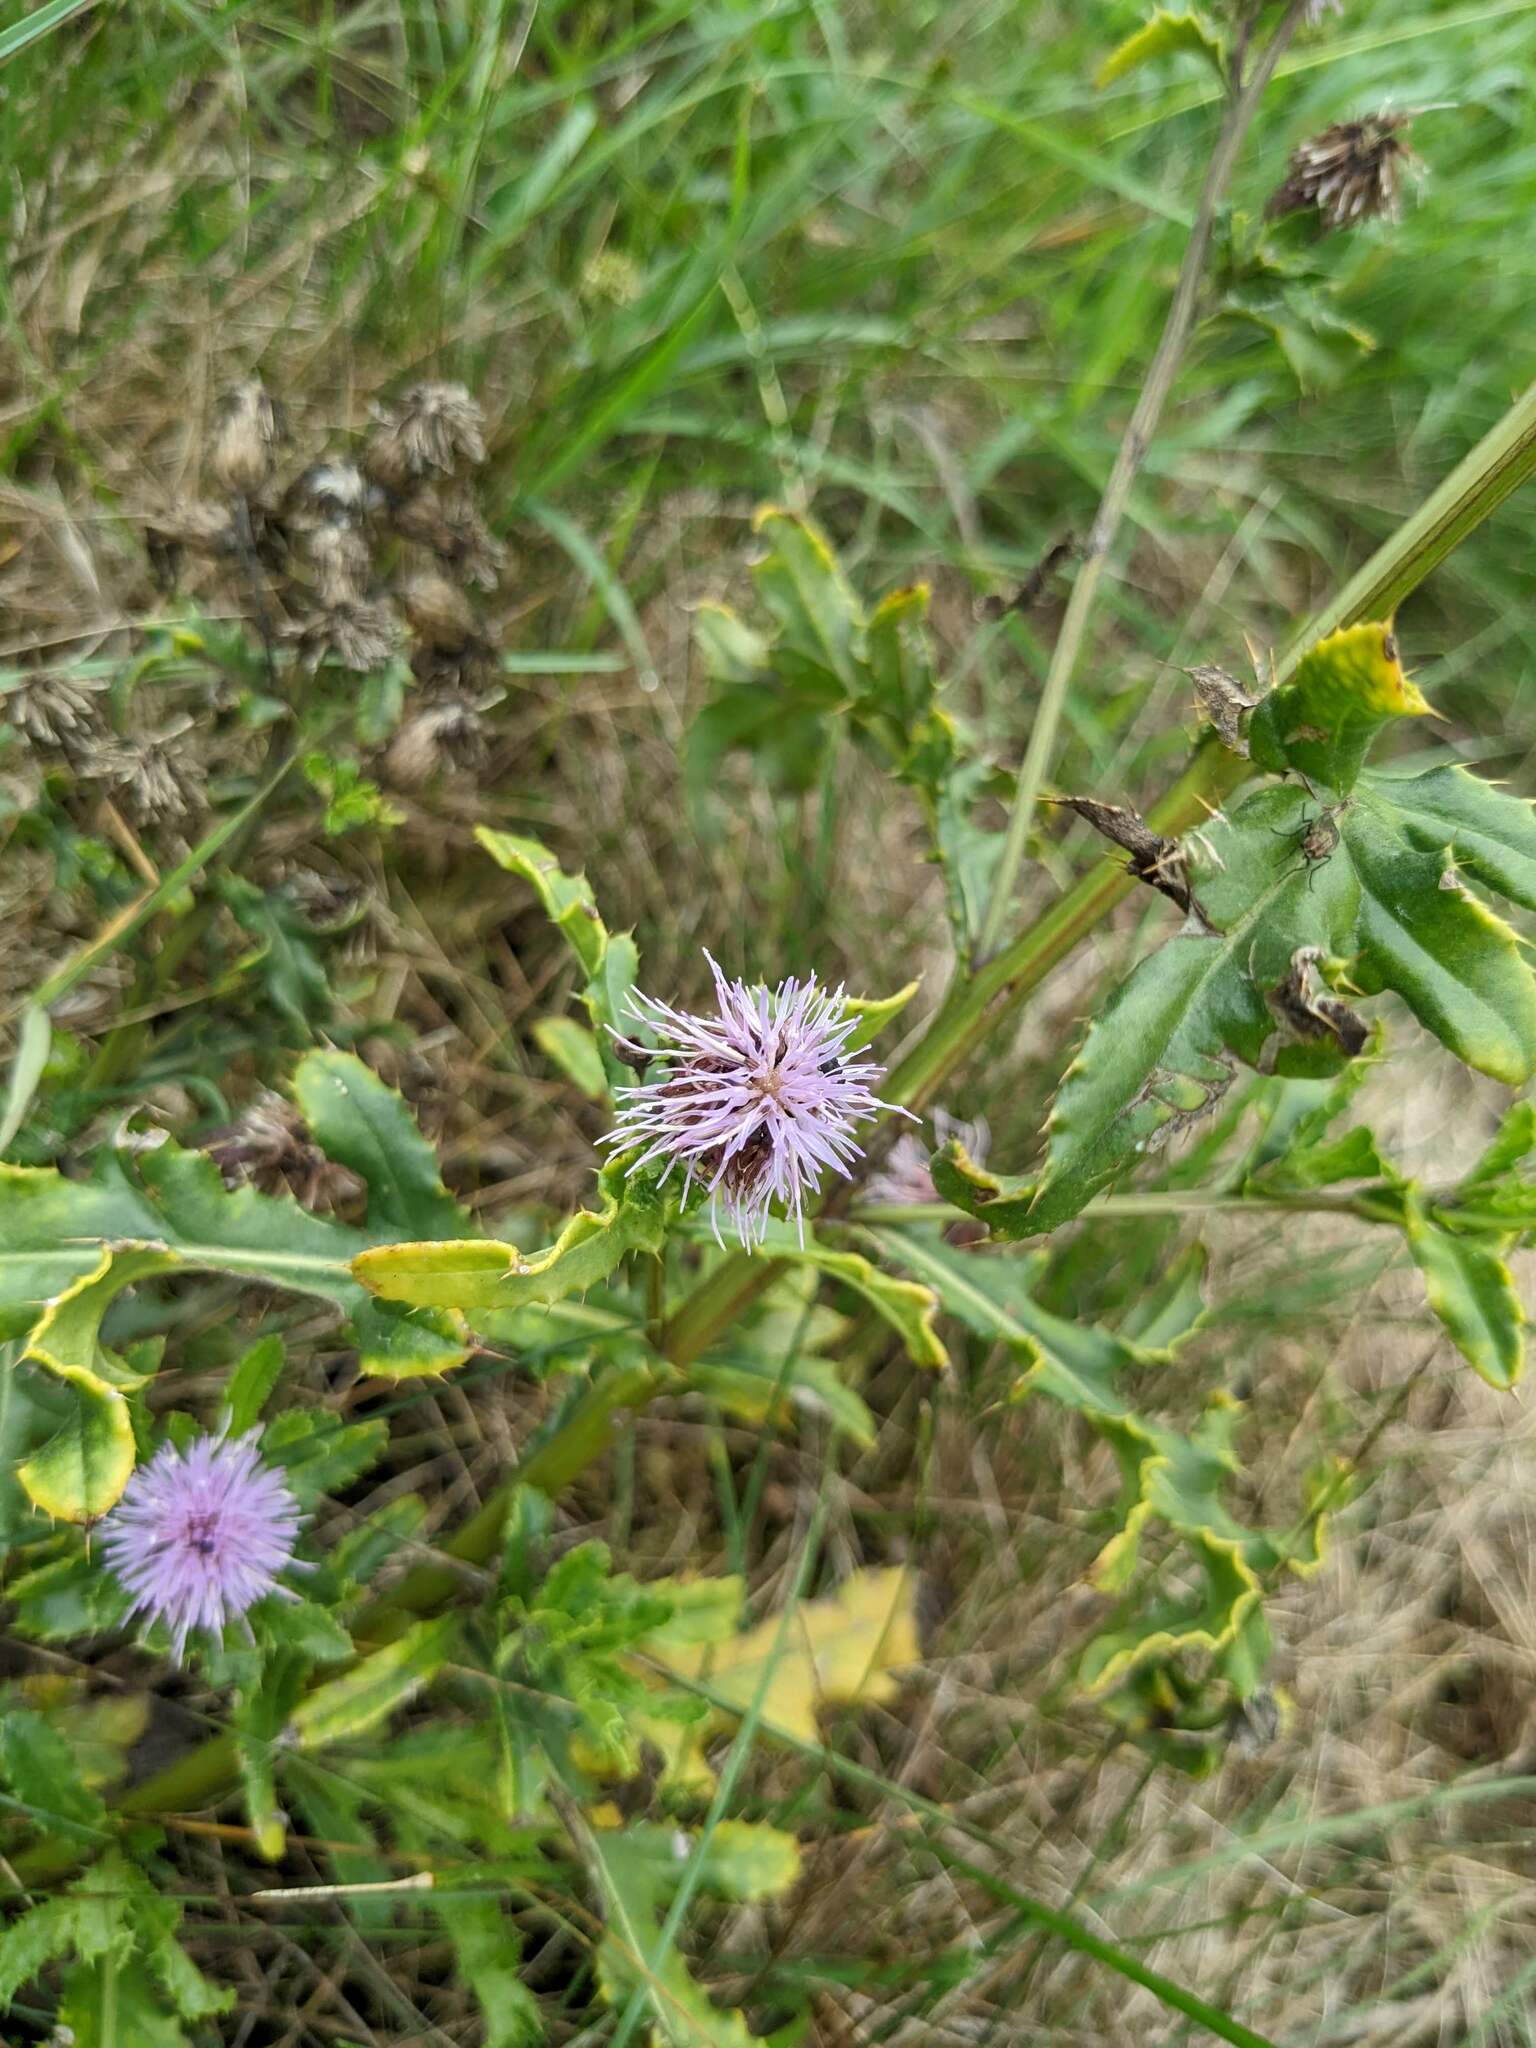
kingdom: Plantae
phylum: Tracheophyta
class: Magnoliopsida
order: Asterales
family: Asteraceae
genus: Cirsium
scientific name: Cirsium arvense
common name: Creeping thistle
